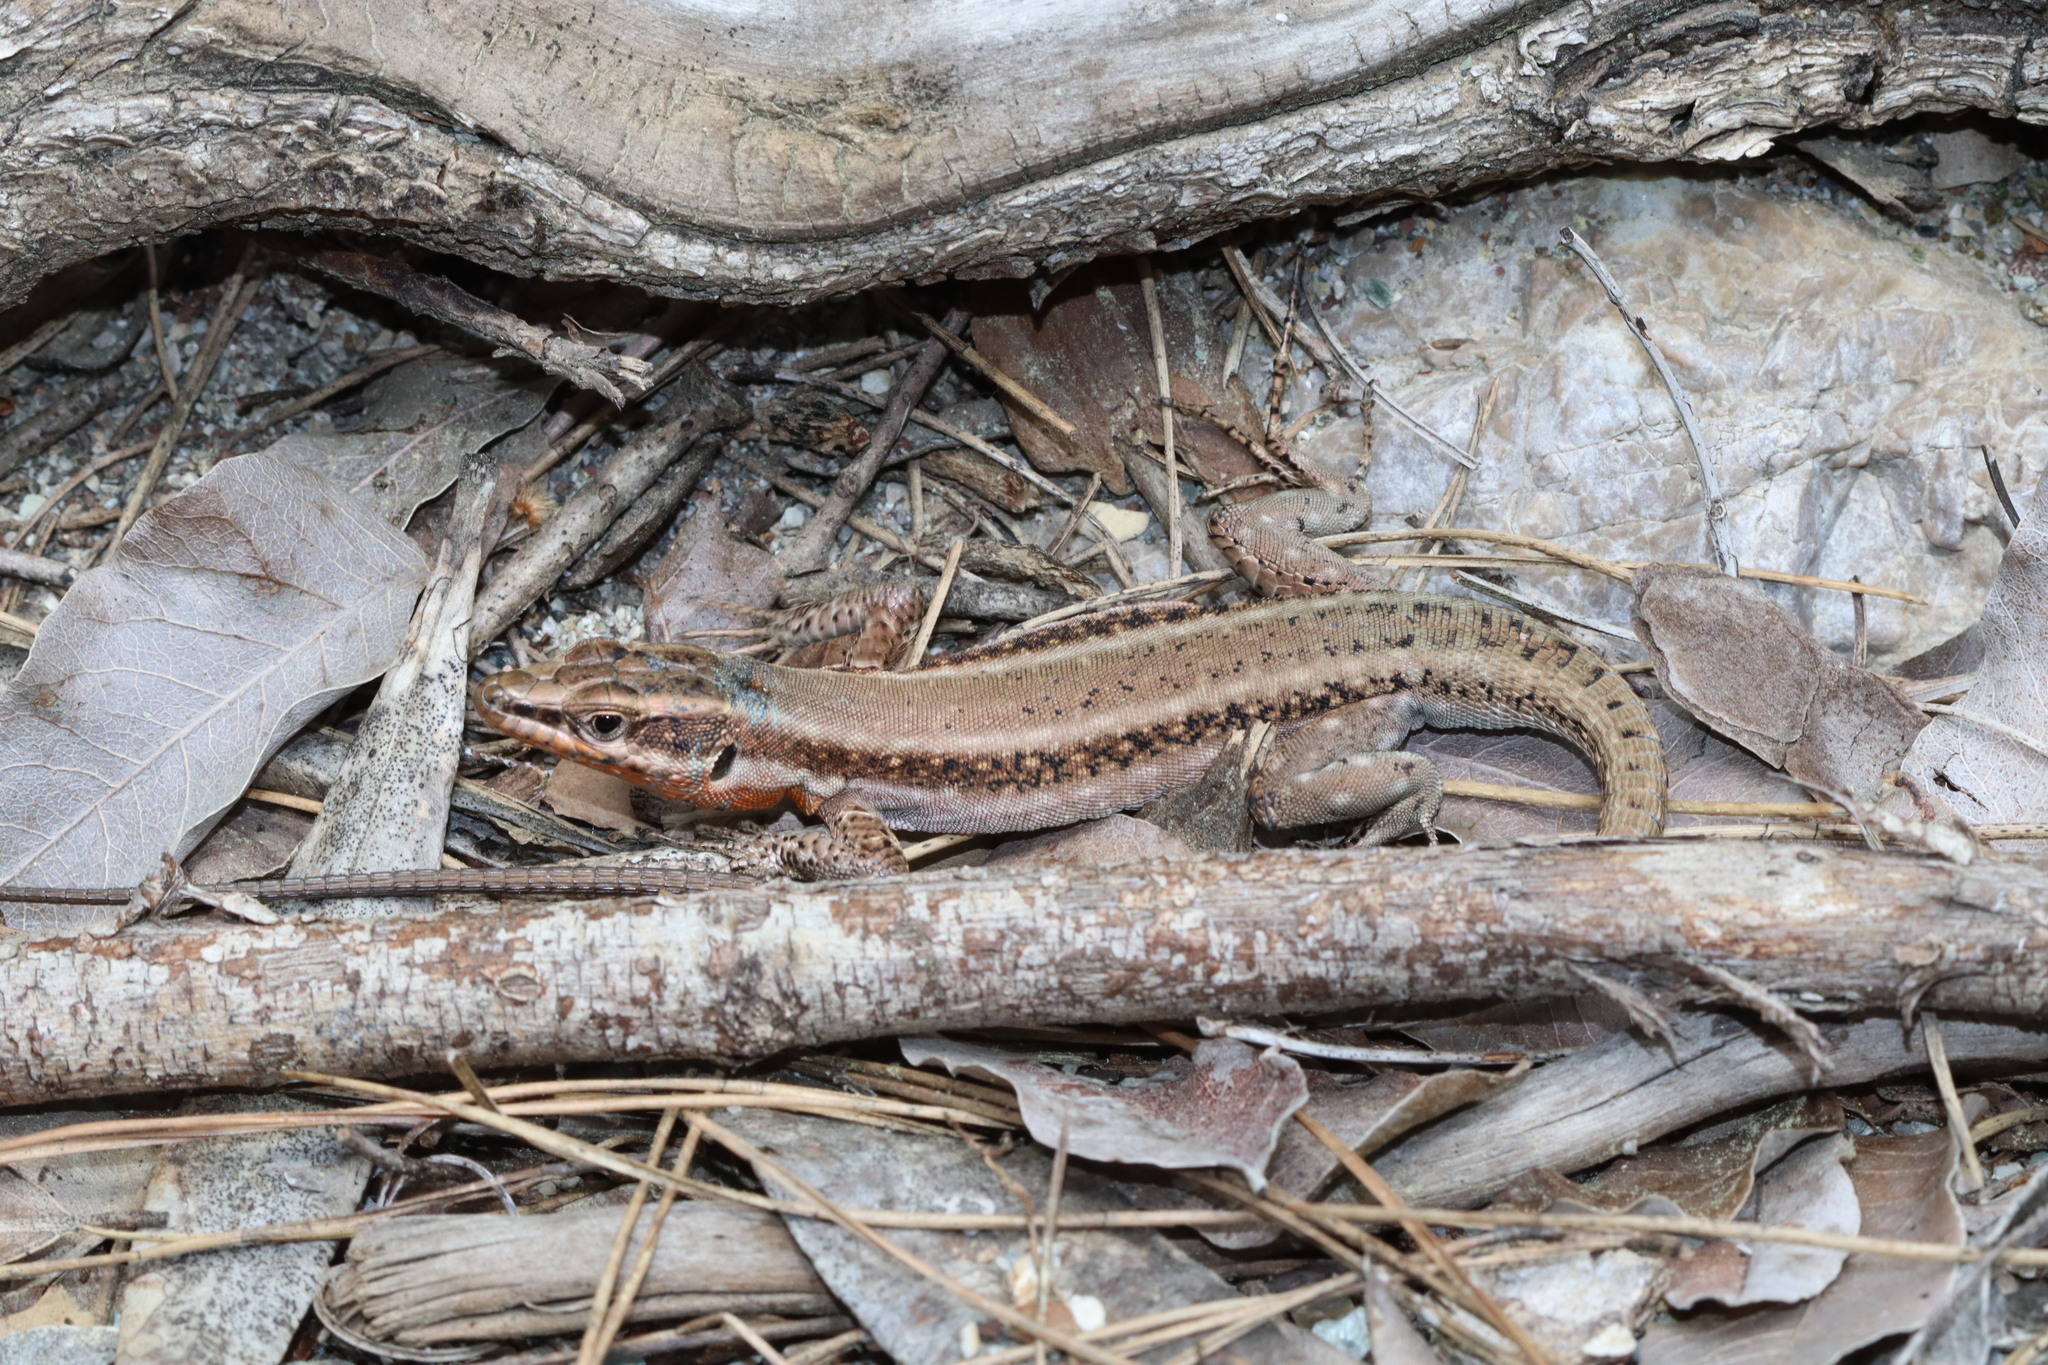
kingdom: Animalia
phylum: Chordata
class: Squamata
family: Lacertidae
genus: Anatololacerta
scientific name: Anatololacerta finikensis
